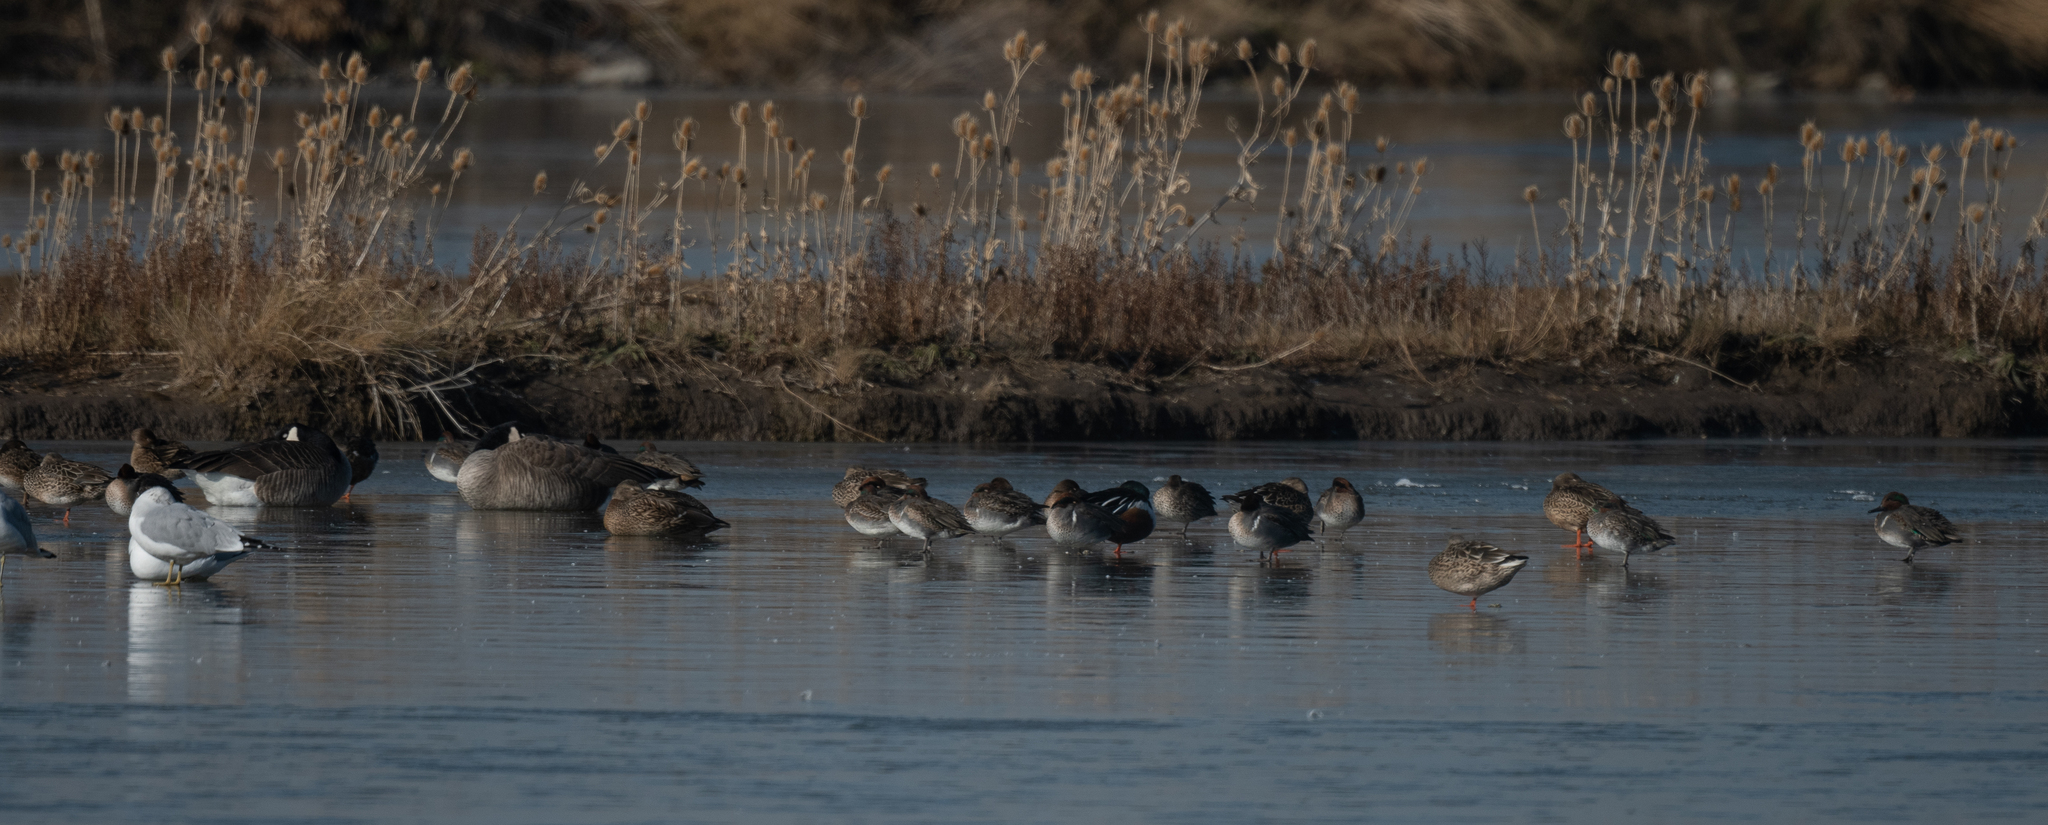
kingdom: Animalia
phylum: Chordata
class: Aves
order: Anseriformes
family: Anatidae
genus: Anas
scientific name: Anas crecca
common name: Eurasian teal
